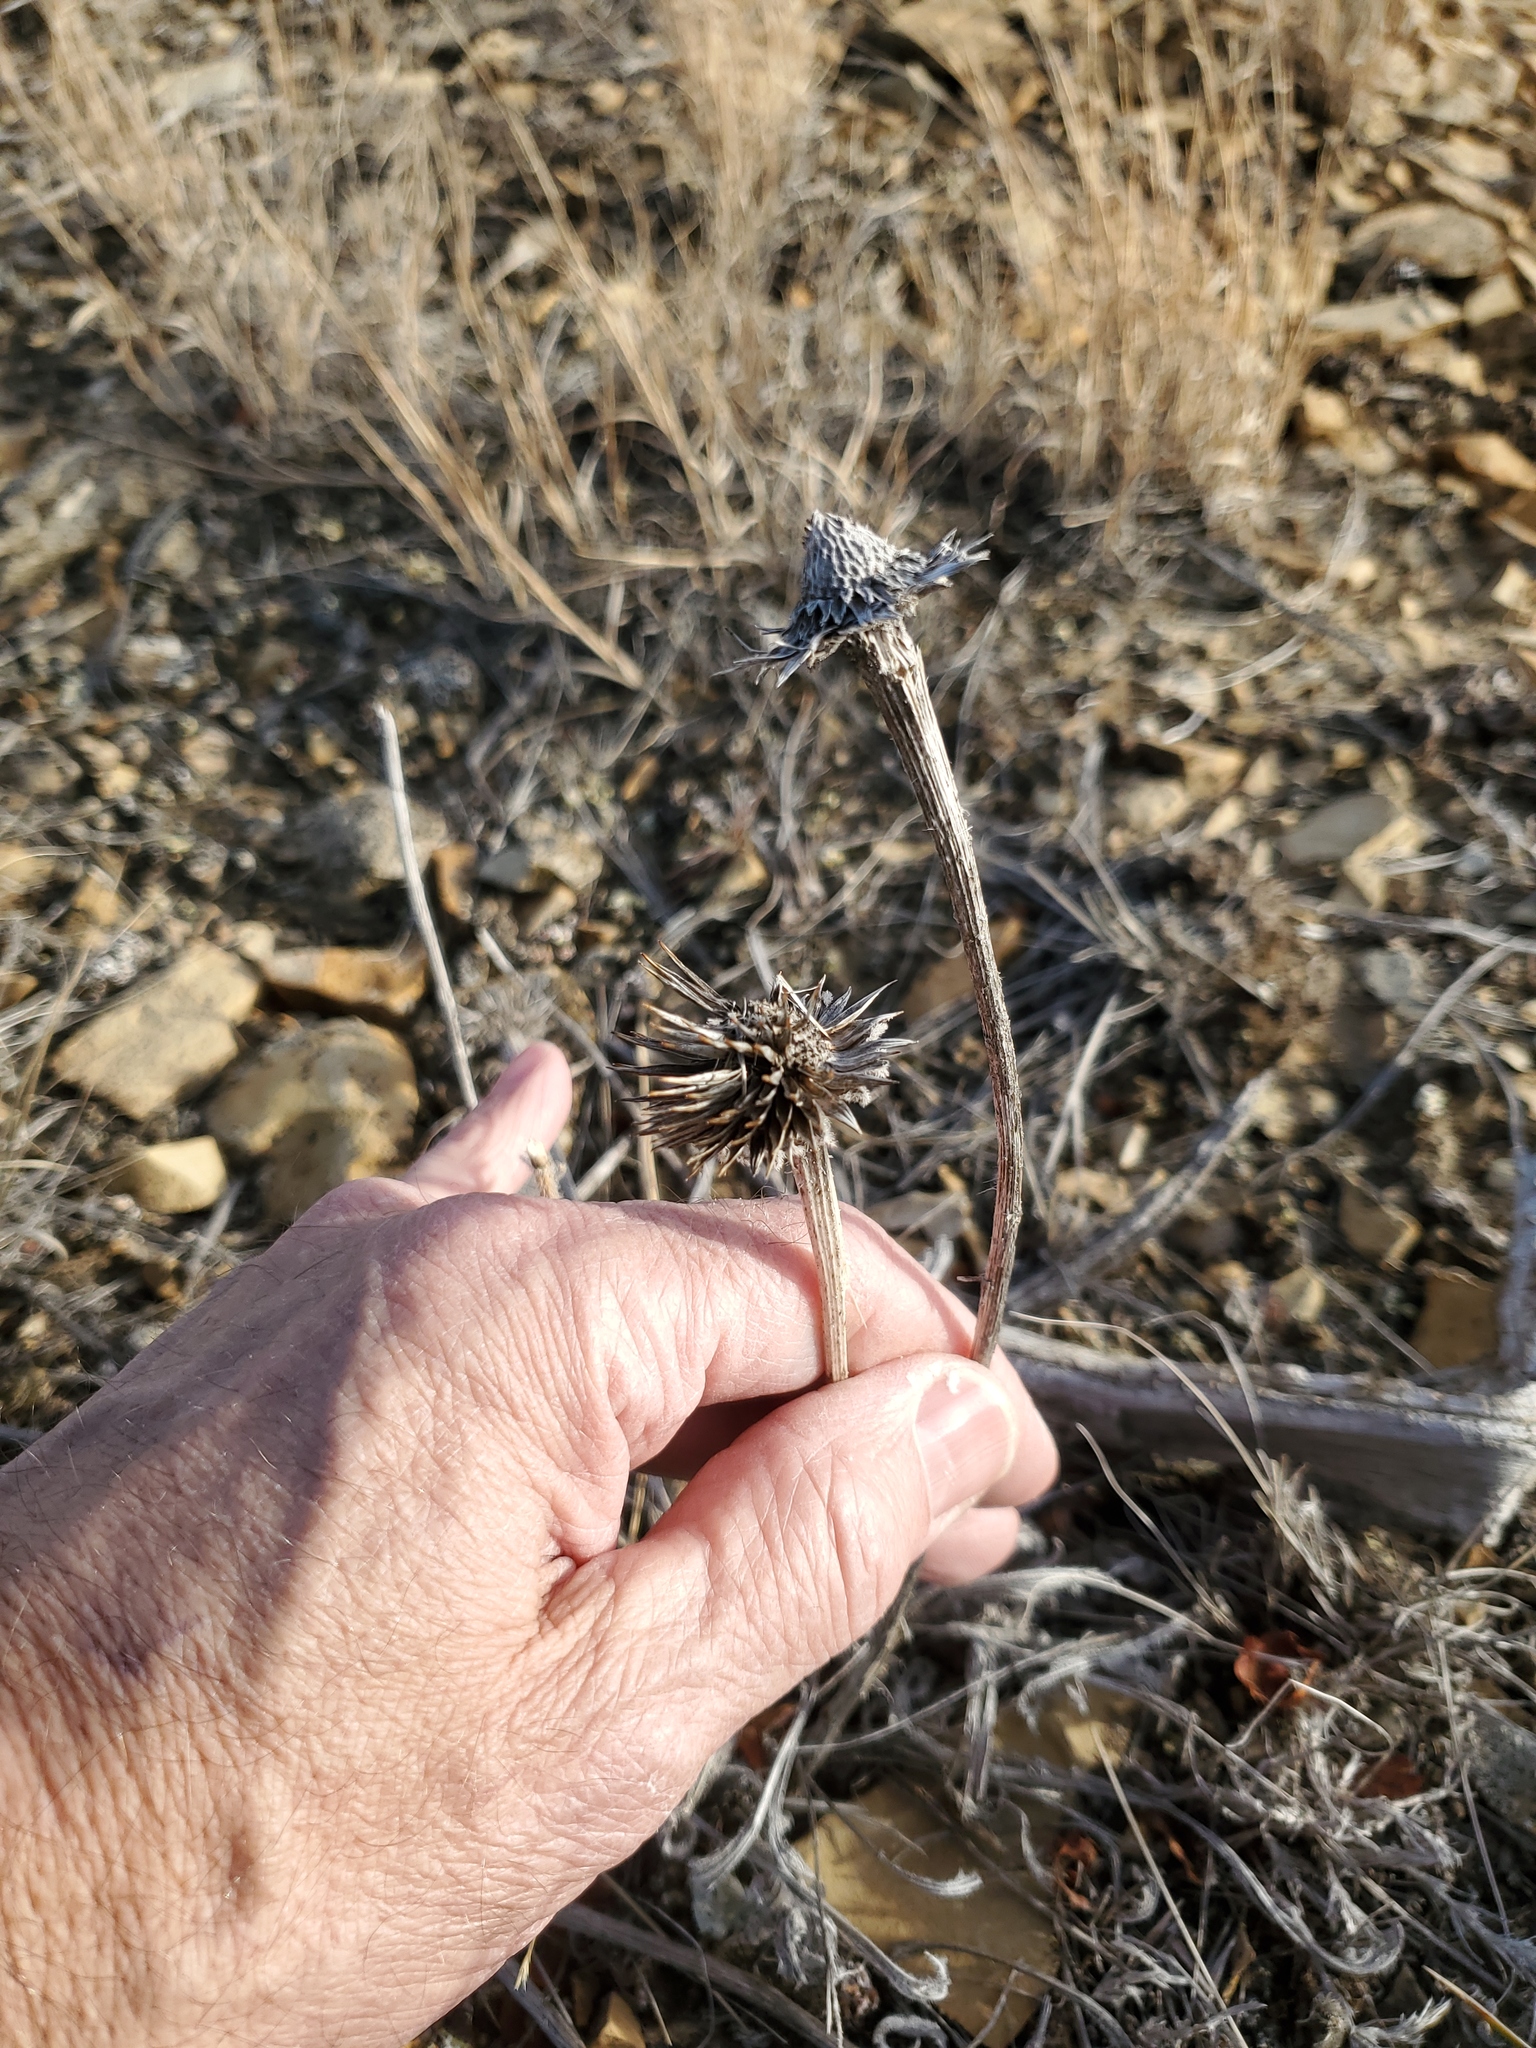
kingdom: Plantae
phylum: Tracheophyta
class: Magnoliopsida
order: Asterales
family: Asteraceae
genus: Echinacea
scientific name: Echinacea angustifolia
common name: Black-sampson echinacea
